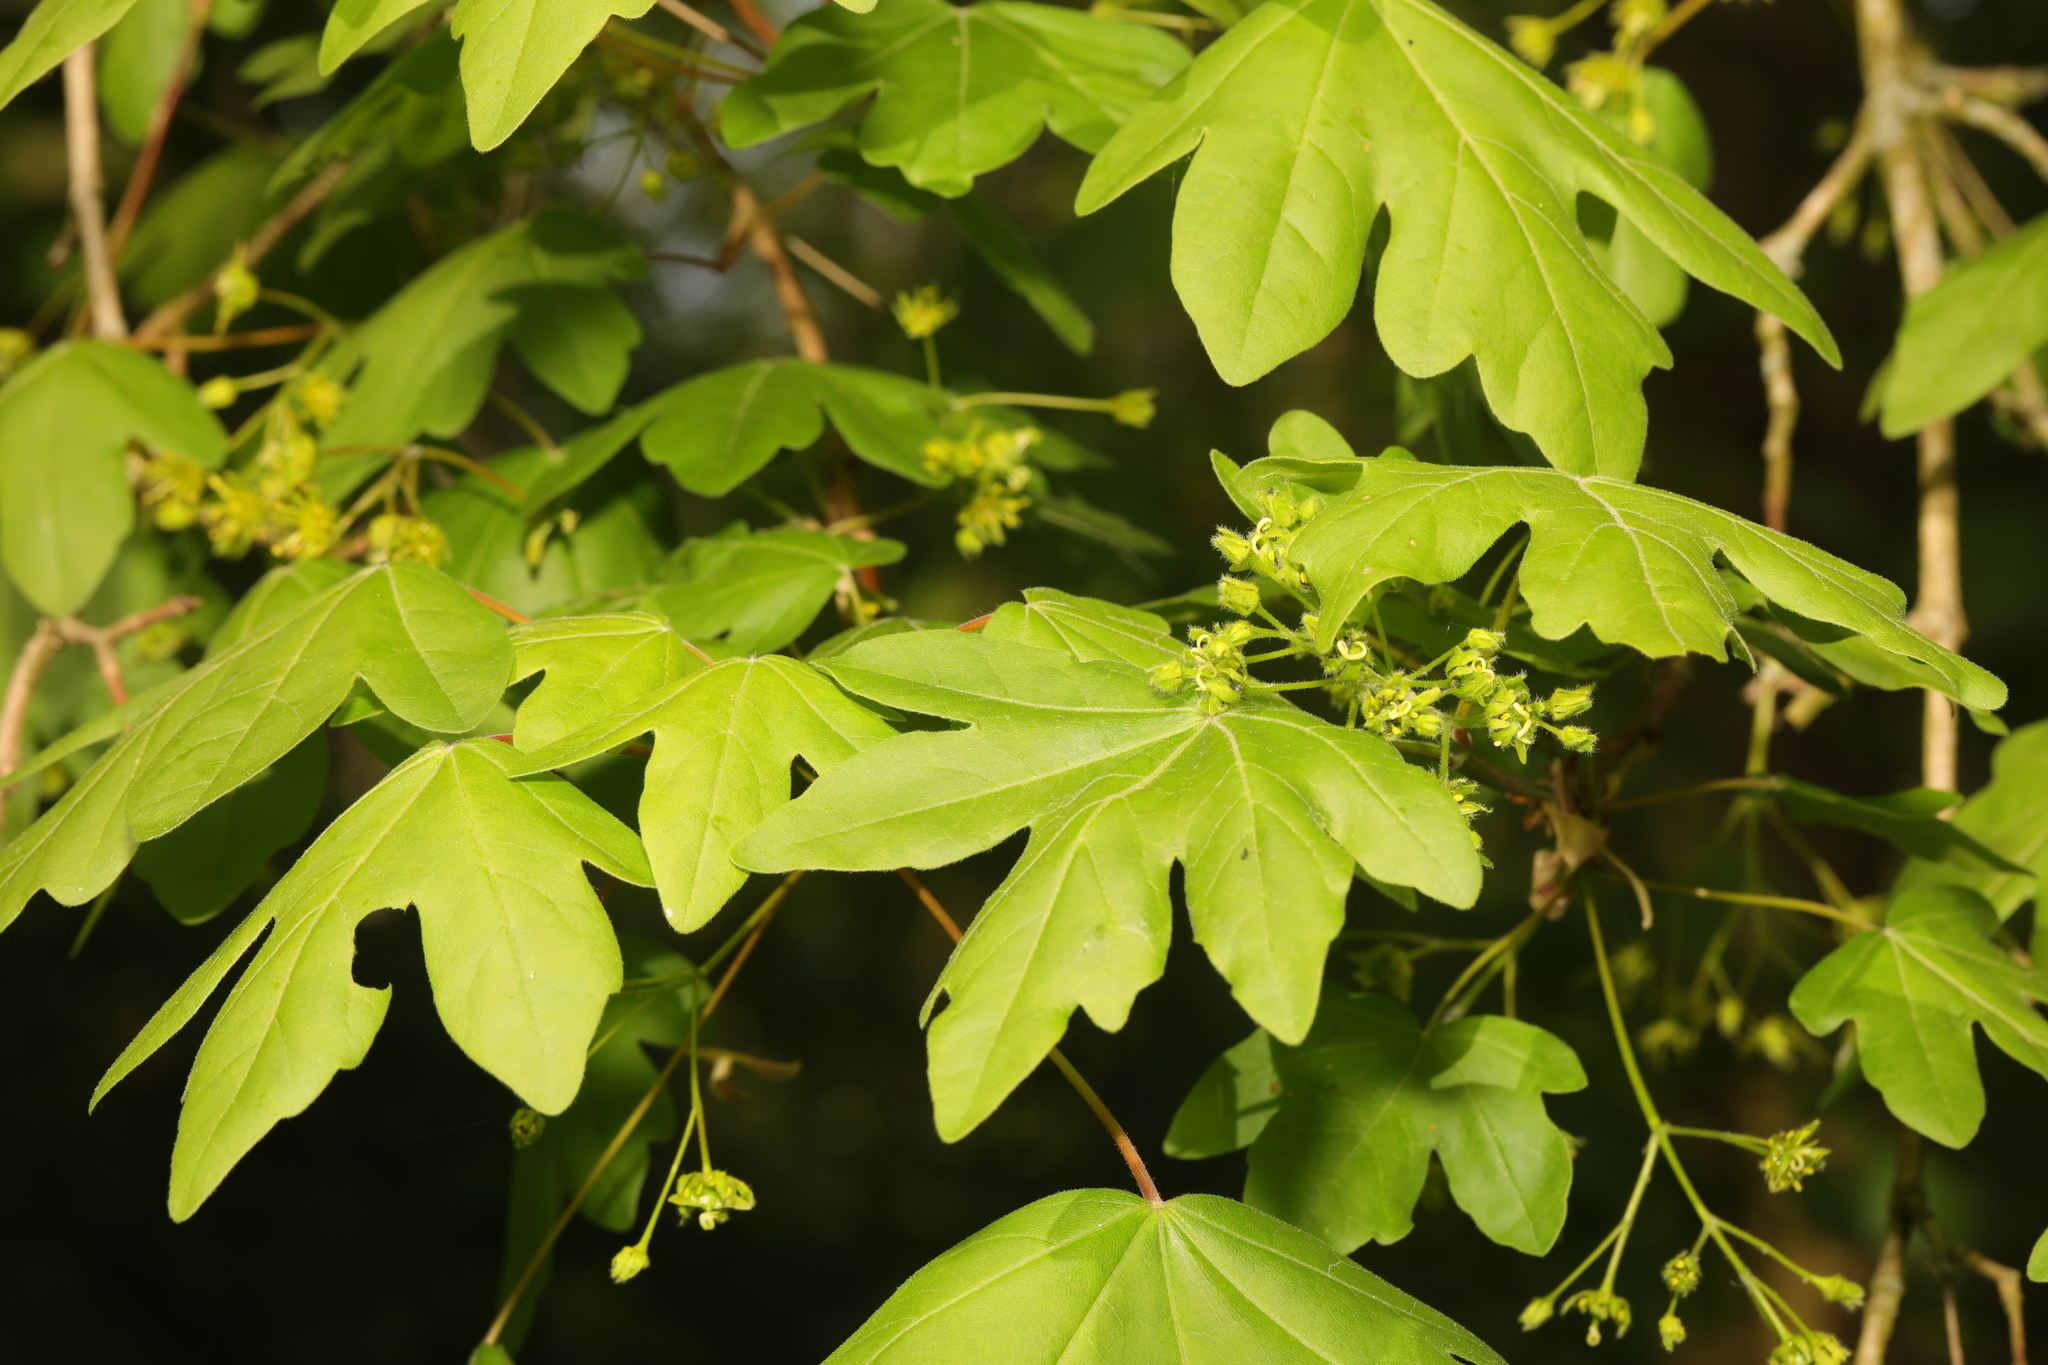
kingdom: Plantae
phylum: Tracheophyta
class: Magnoliopsida
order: Sapindales
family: Sapindaceae
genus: Acer
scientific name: Acer campestre
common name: Field maple
